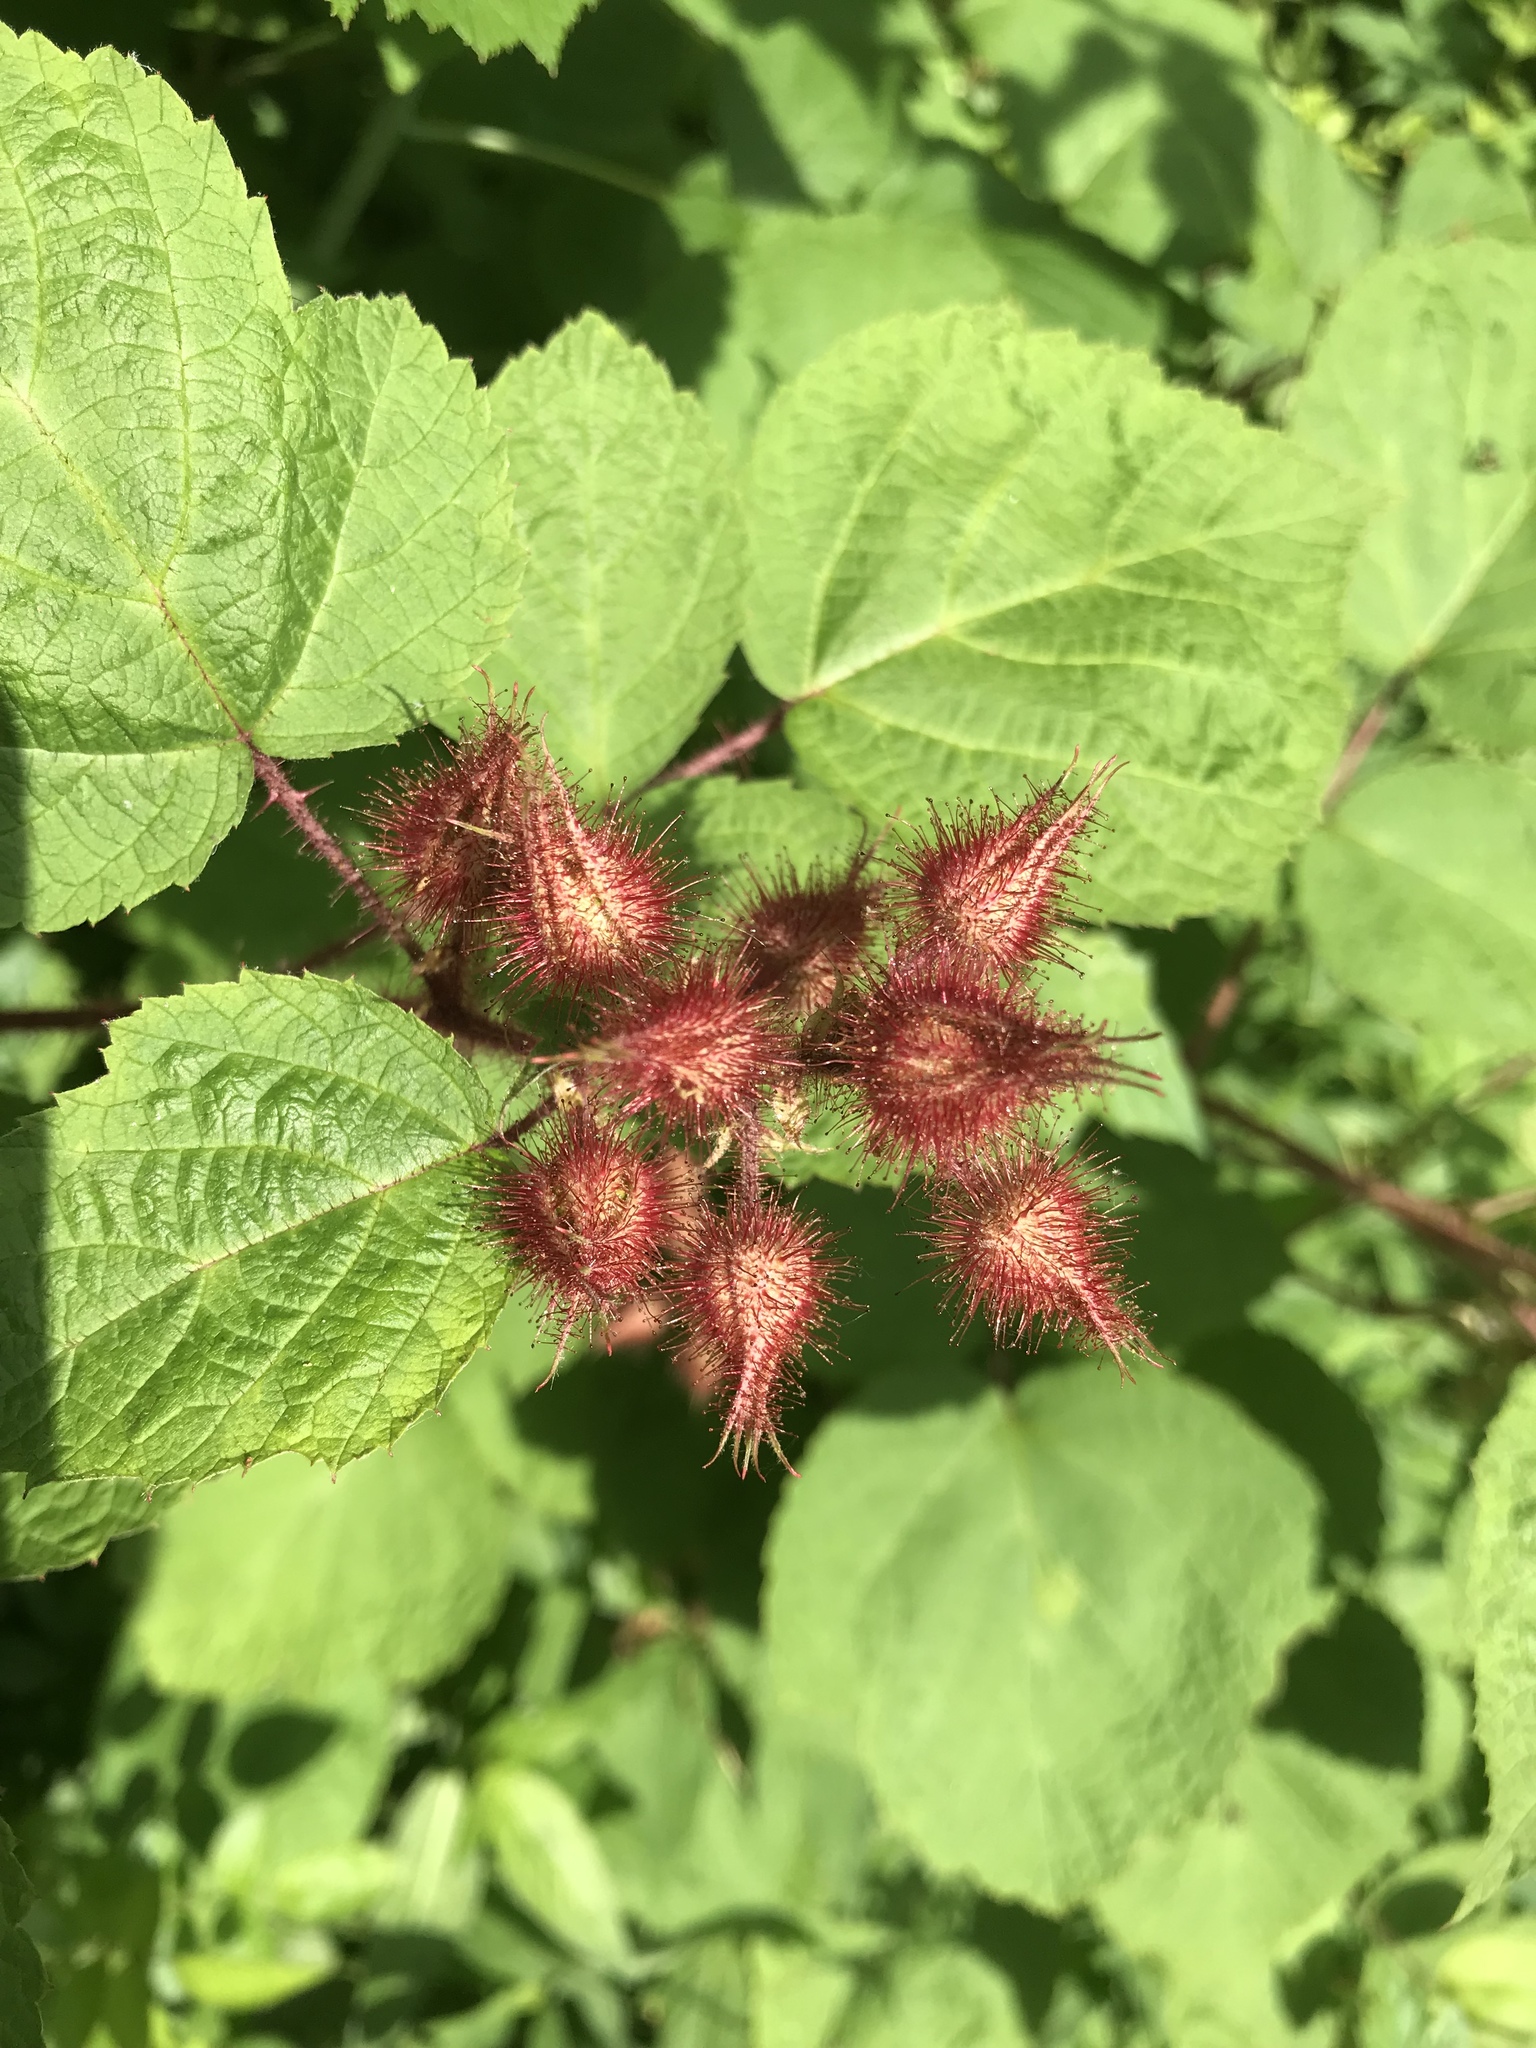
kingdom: Plantae
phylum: Tracheophyta
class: Magnoliopsida
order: Rosales
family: Rosaceae
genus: Rubus
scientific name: Rubus phoenicolasius
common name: Japanese wineberry
